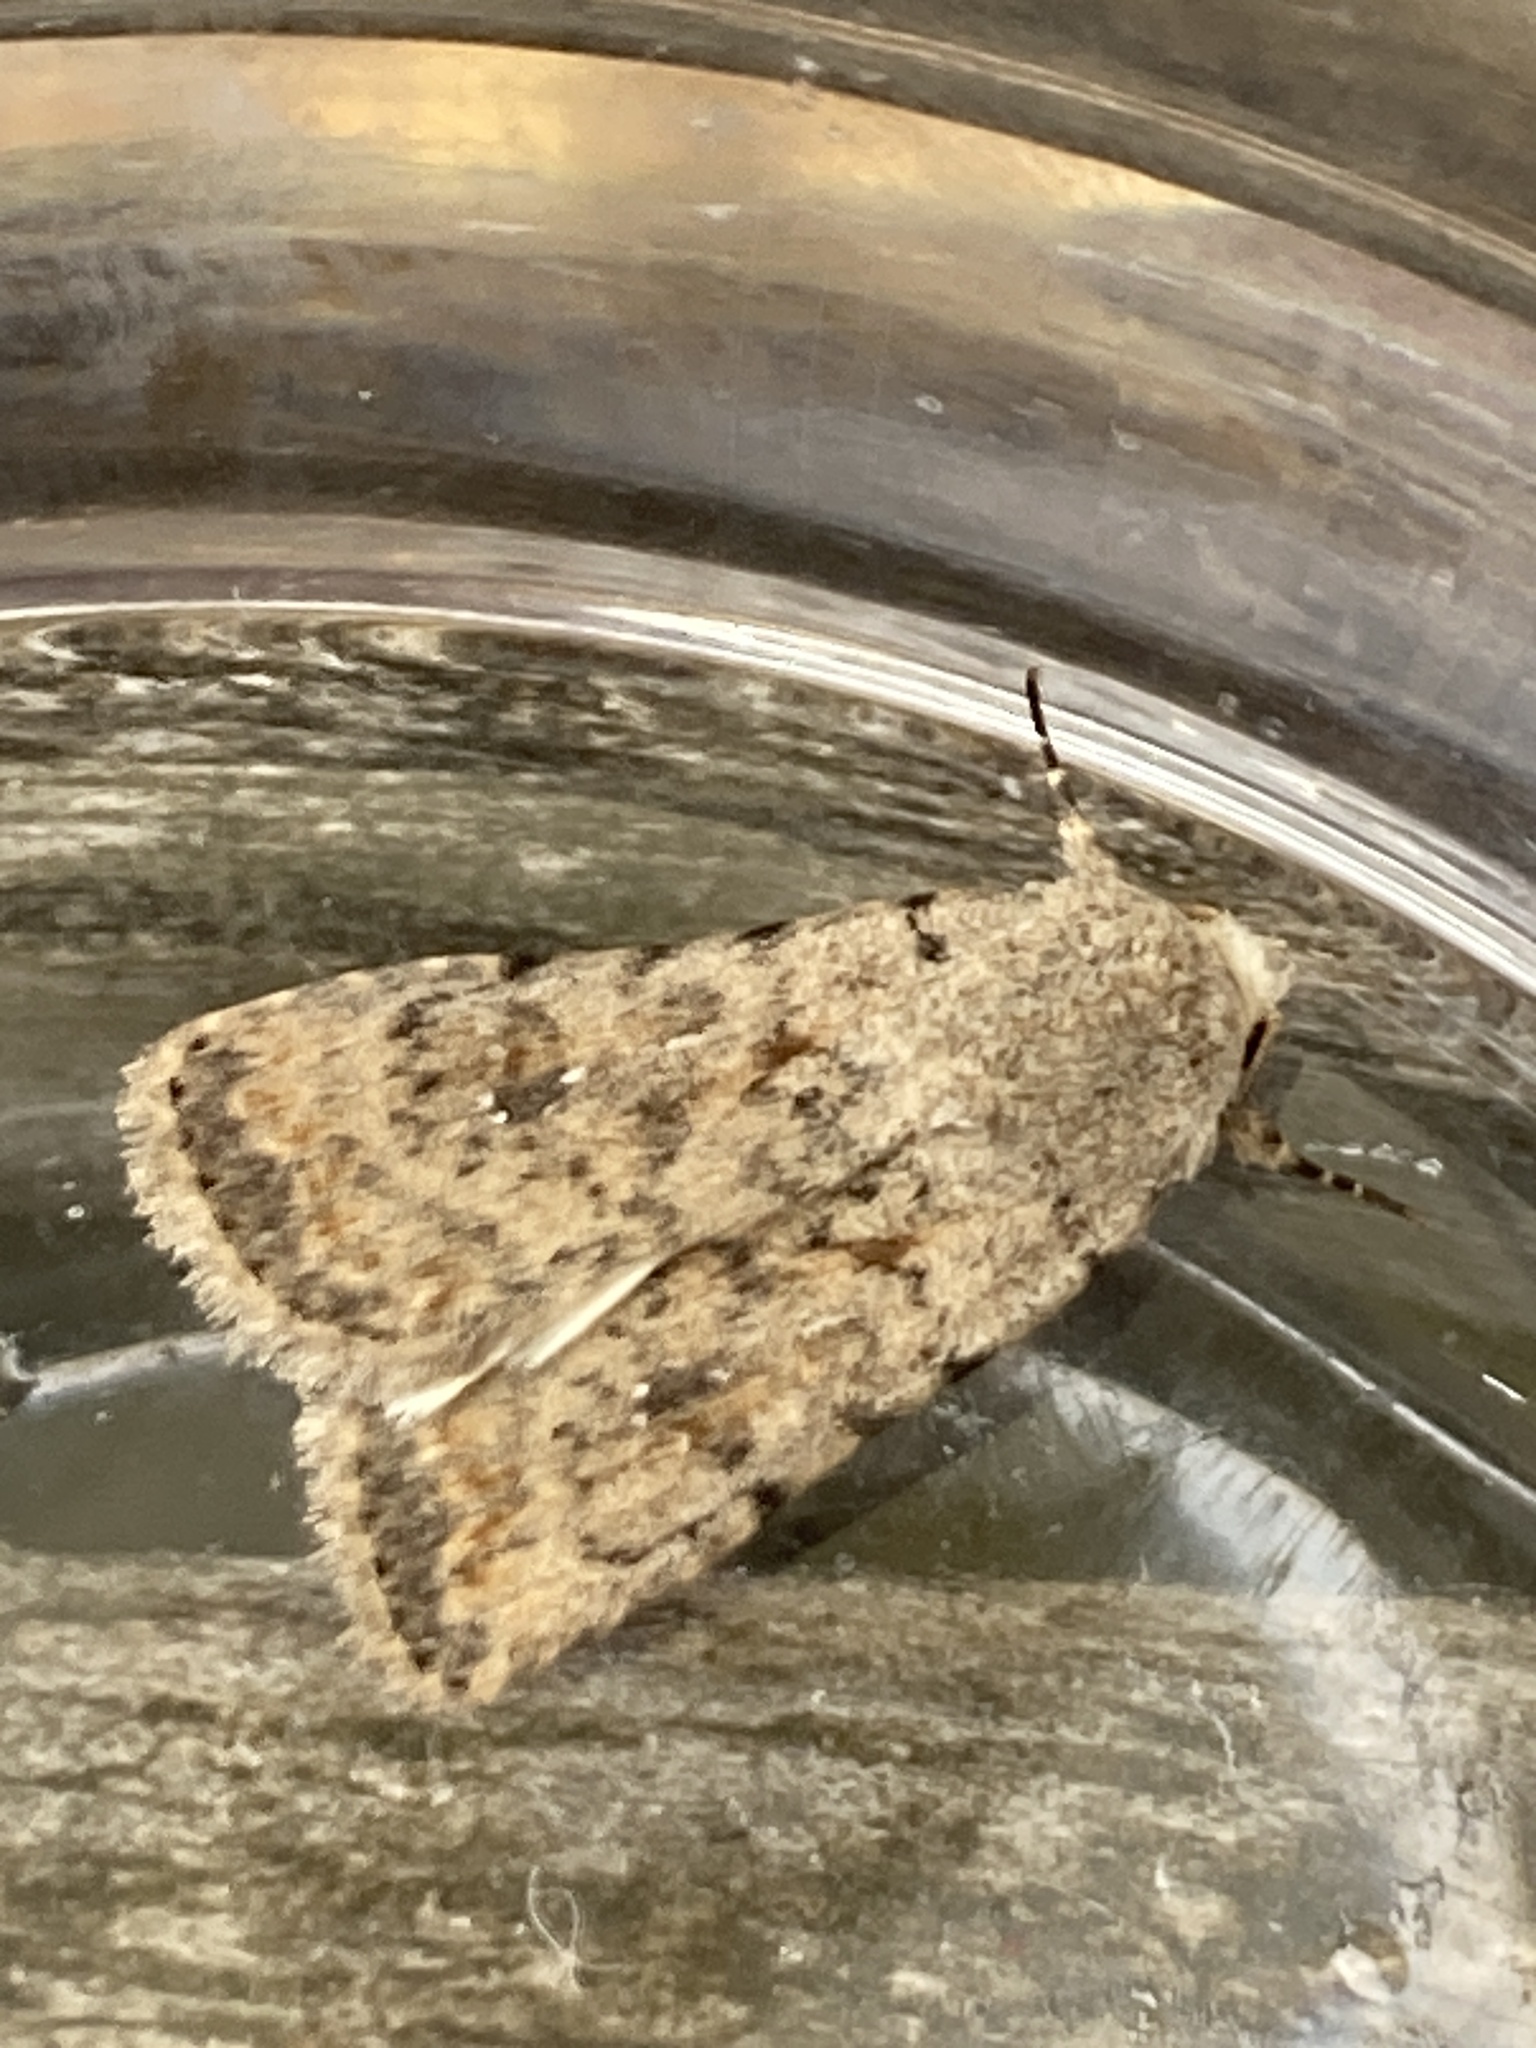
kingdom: Animalia
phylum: Arthropoda
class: Insecta
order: Lepidoptera
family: Noctuidae
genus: Caradrina
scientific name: Caradrina clavipalpis
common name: Pale mottled willow
